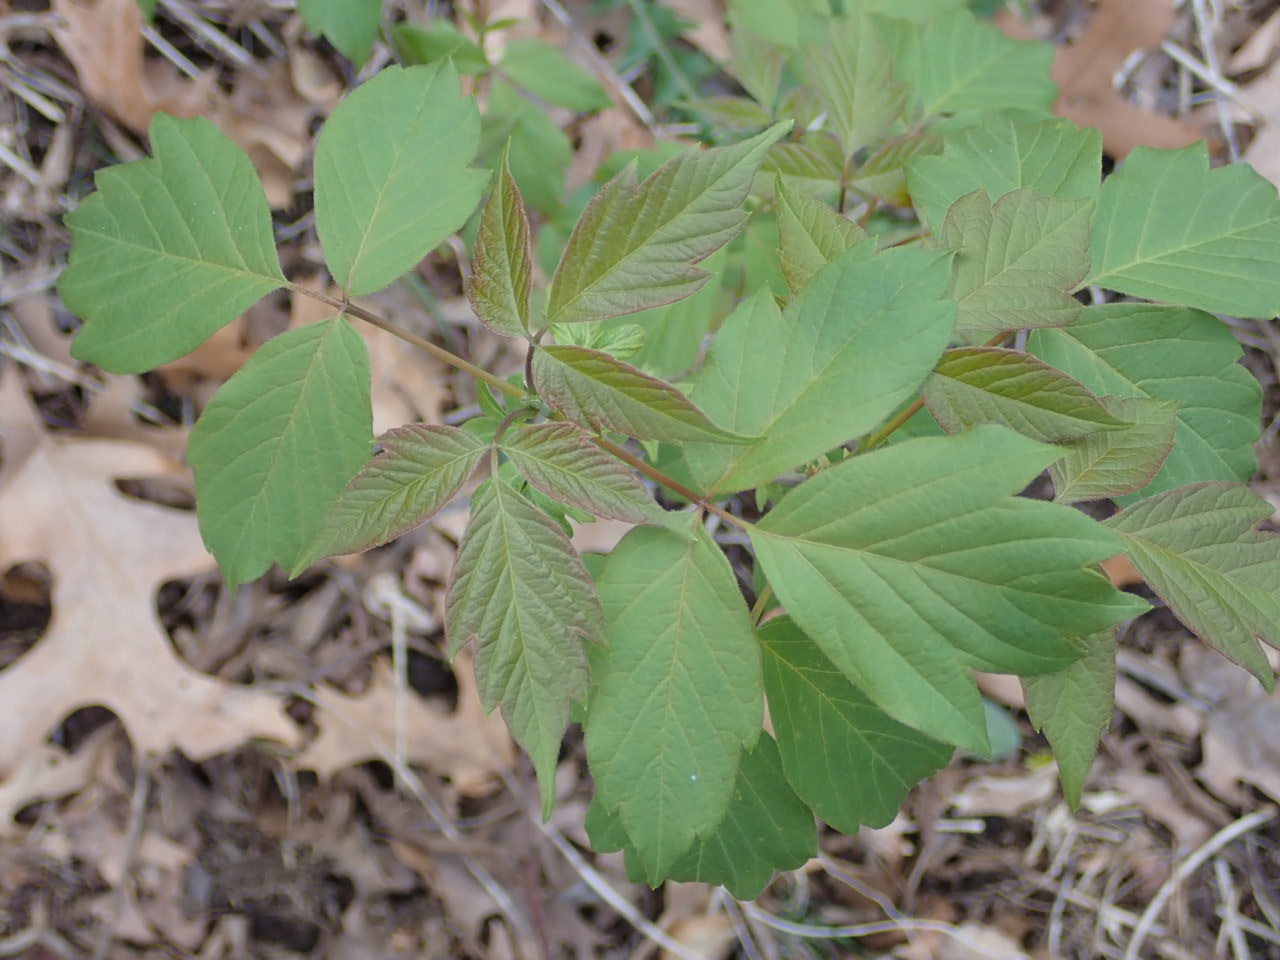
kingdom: Plantae
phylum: Tracheophyta
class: Magnoliopsida
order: Sapindales
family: Sapindaceae
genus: Acer
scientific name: Acer negundo
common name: Ashleaf maple
